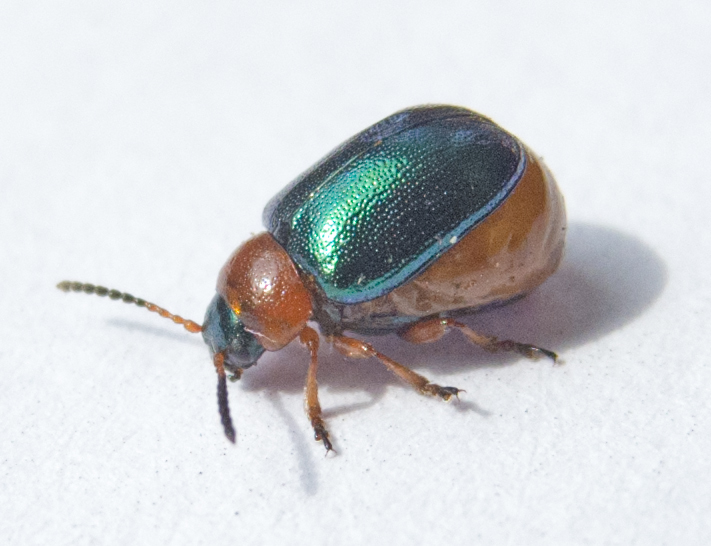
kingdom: Animalia
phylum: Arthropoda
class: Insecta
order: Coleoptera
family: Chrysomelidae
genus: Gastrophysa
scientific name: Gastrophysa polygoni
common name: Knotweed leaf beetle
